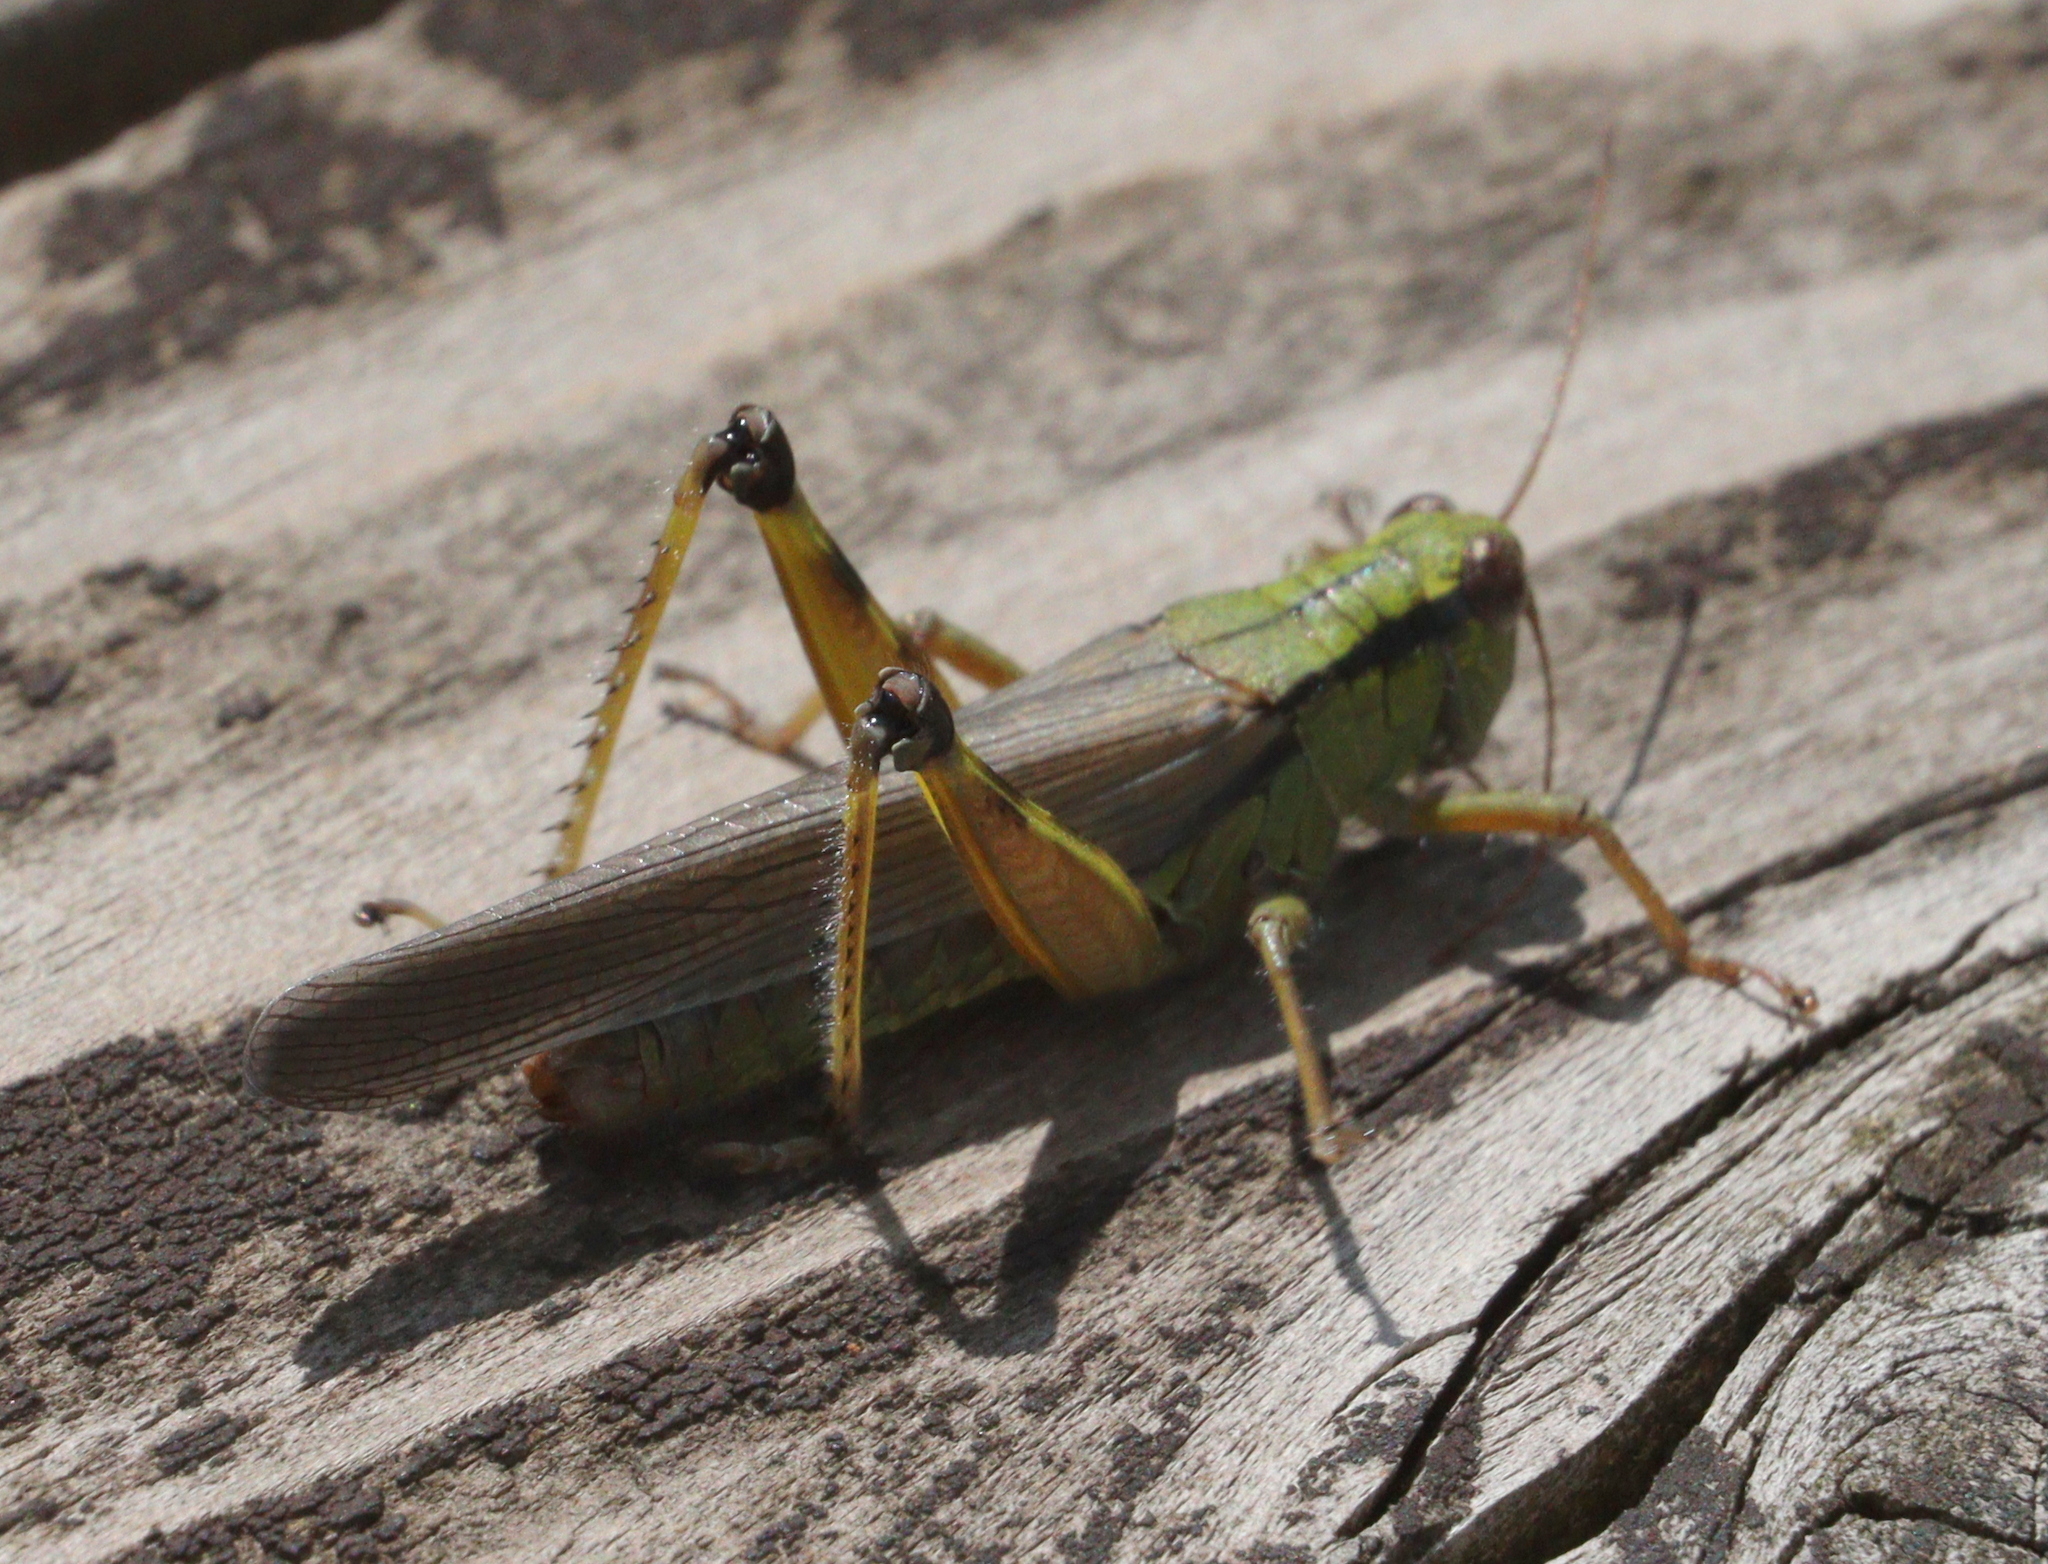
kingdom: Animalia
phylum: Arthropoda
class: Insecta
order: Orthoptera
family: Acrididae
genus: Confusacris
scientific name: Confusacris longipennis
